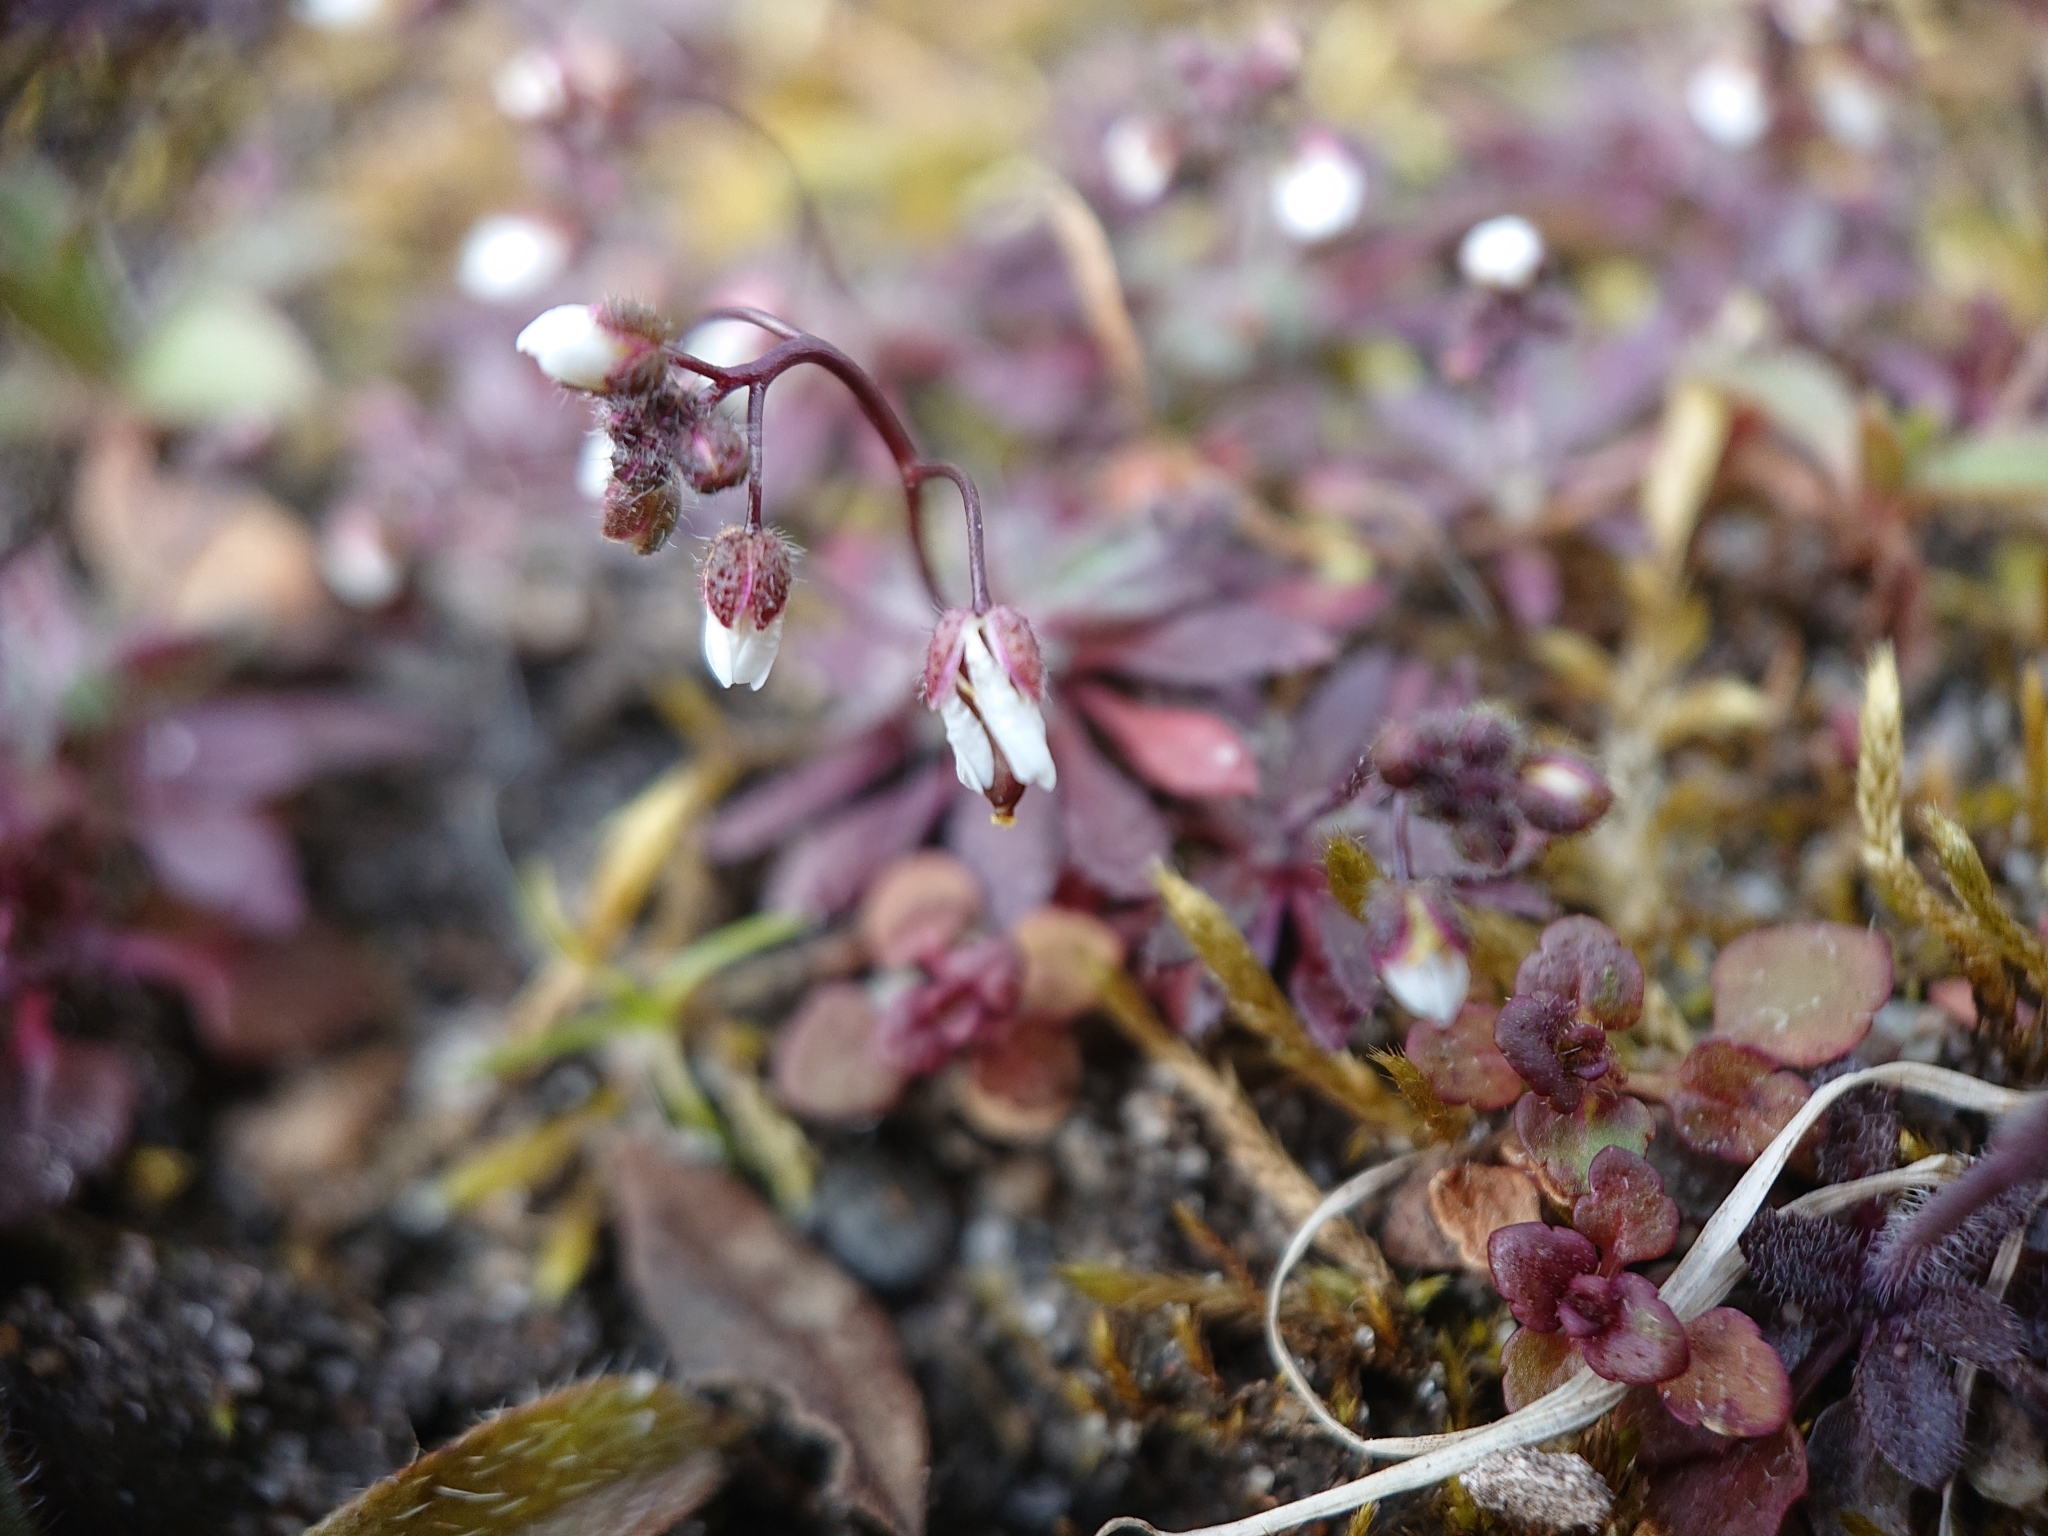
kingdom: Plantae
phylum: Tracheophyta
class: Magnoliopsida
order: Brassicales
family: Brassicaceae
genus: Draba
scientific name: Draba verna
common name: Spring draba
